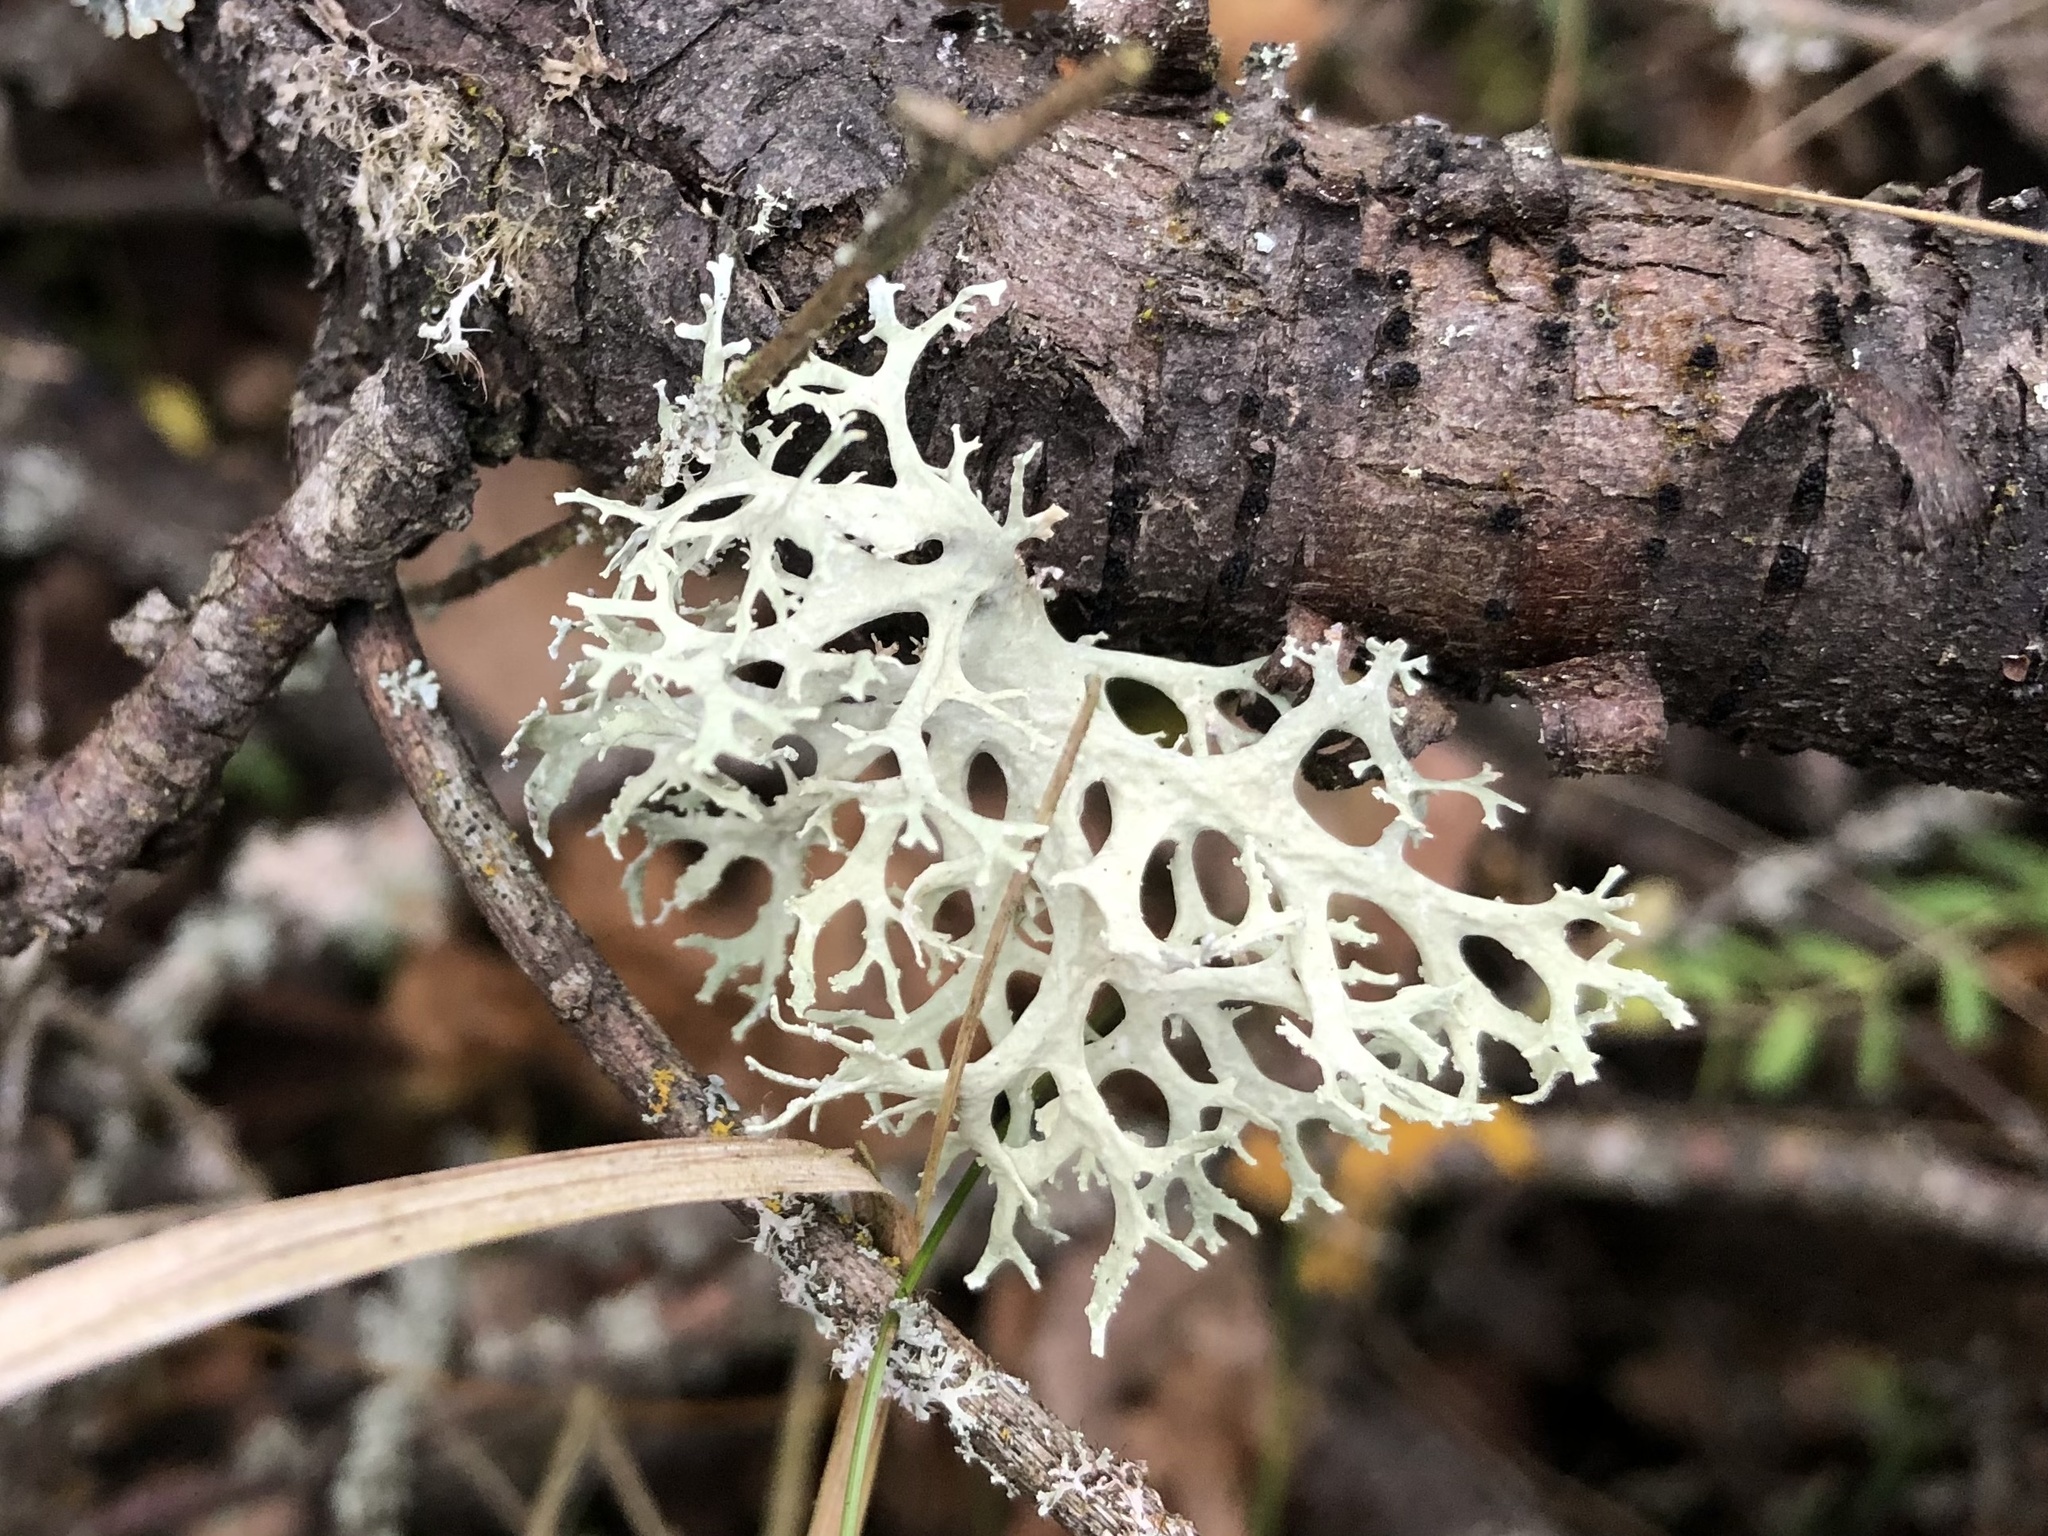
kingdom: Fungi
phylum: Ascomycota
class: Lecanoromycetes
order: Lecanorales
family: Parmeliaceae
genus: Evernia
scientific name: Evernia prunastri
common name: Oak moss
